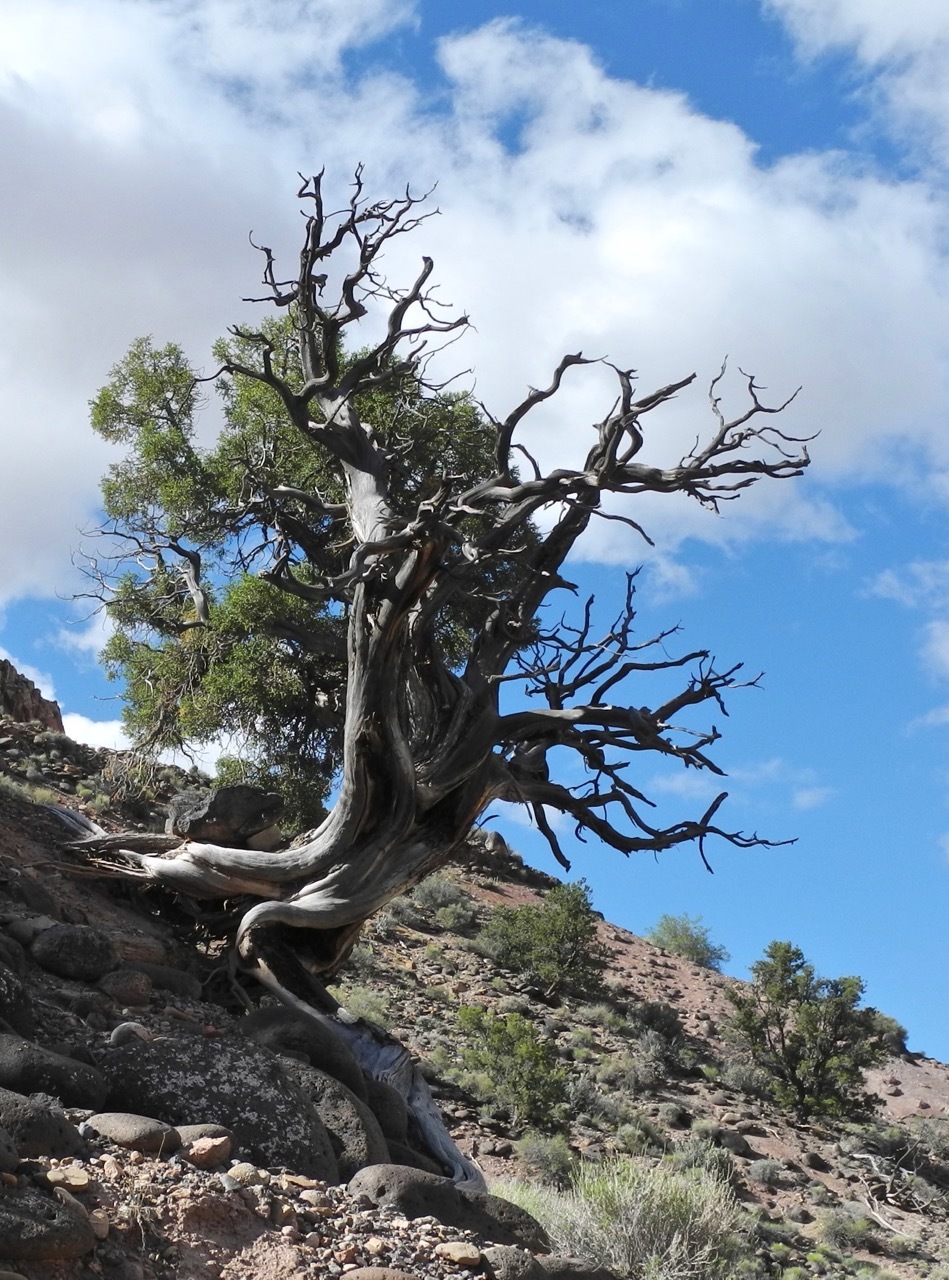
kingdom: Plantae
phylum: Tracheophyta
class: Pinopsida
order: Pinales
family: Cupressaceae
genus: Juniperus
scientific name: Juniperus osteosperma
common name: Utah juniper
